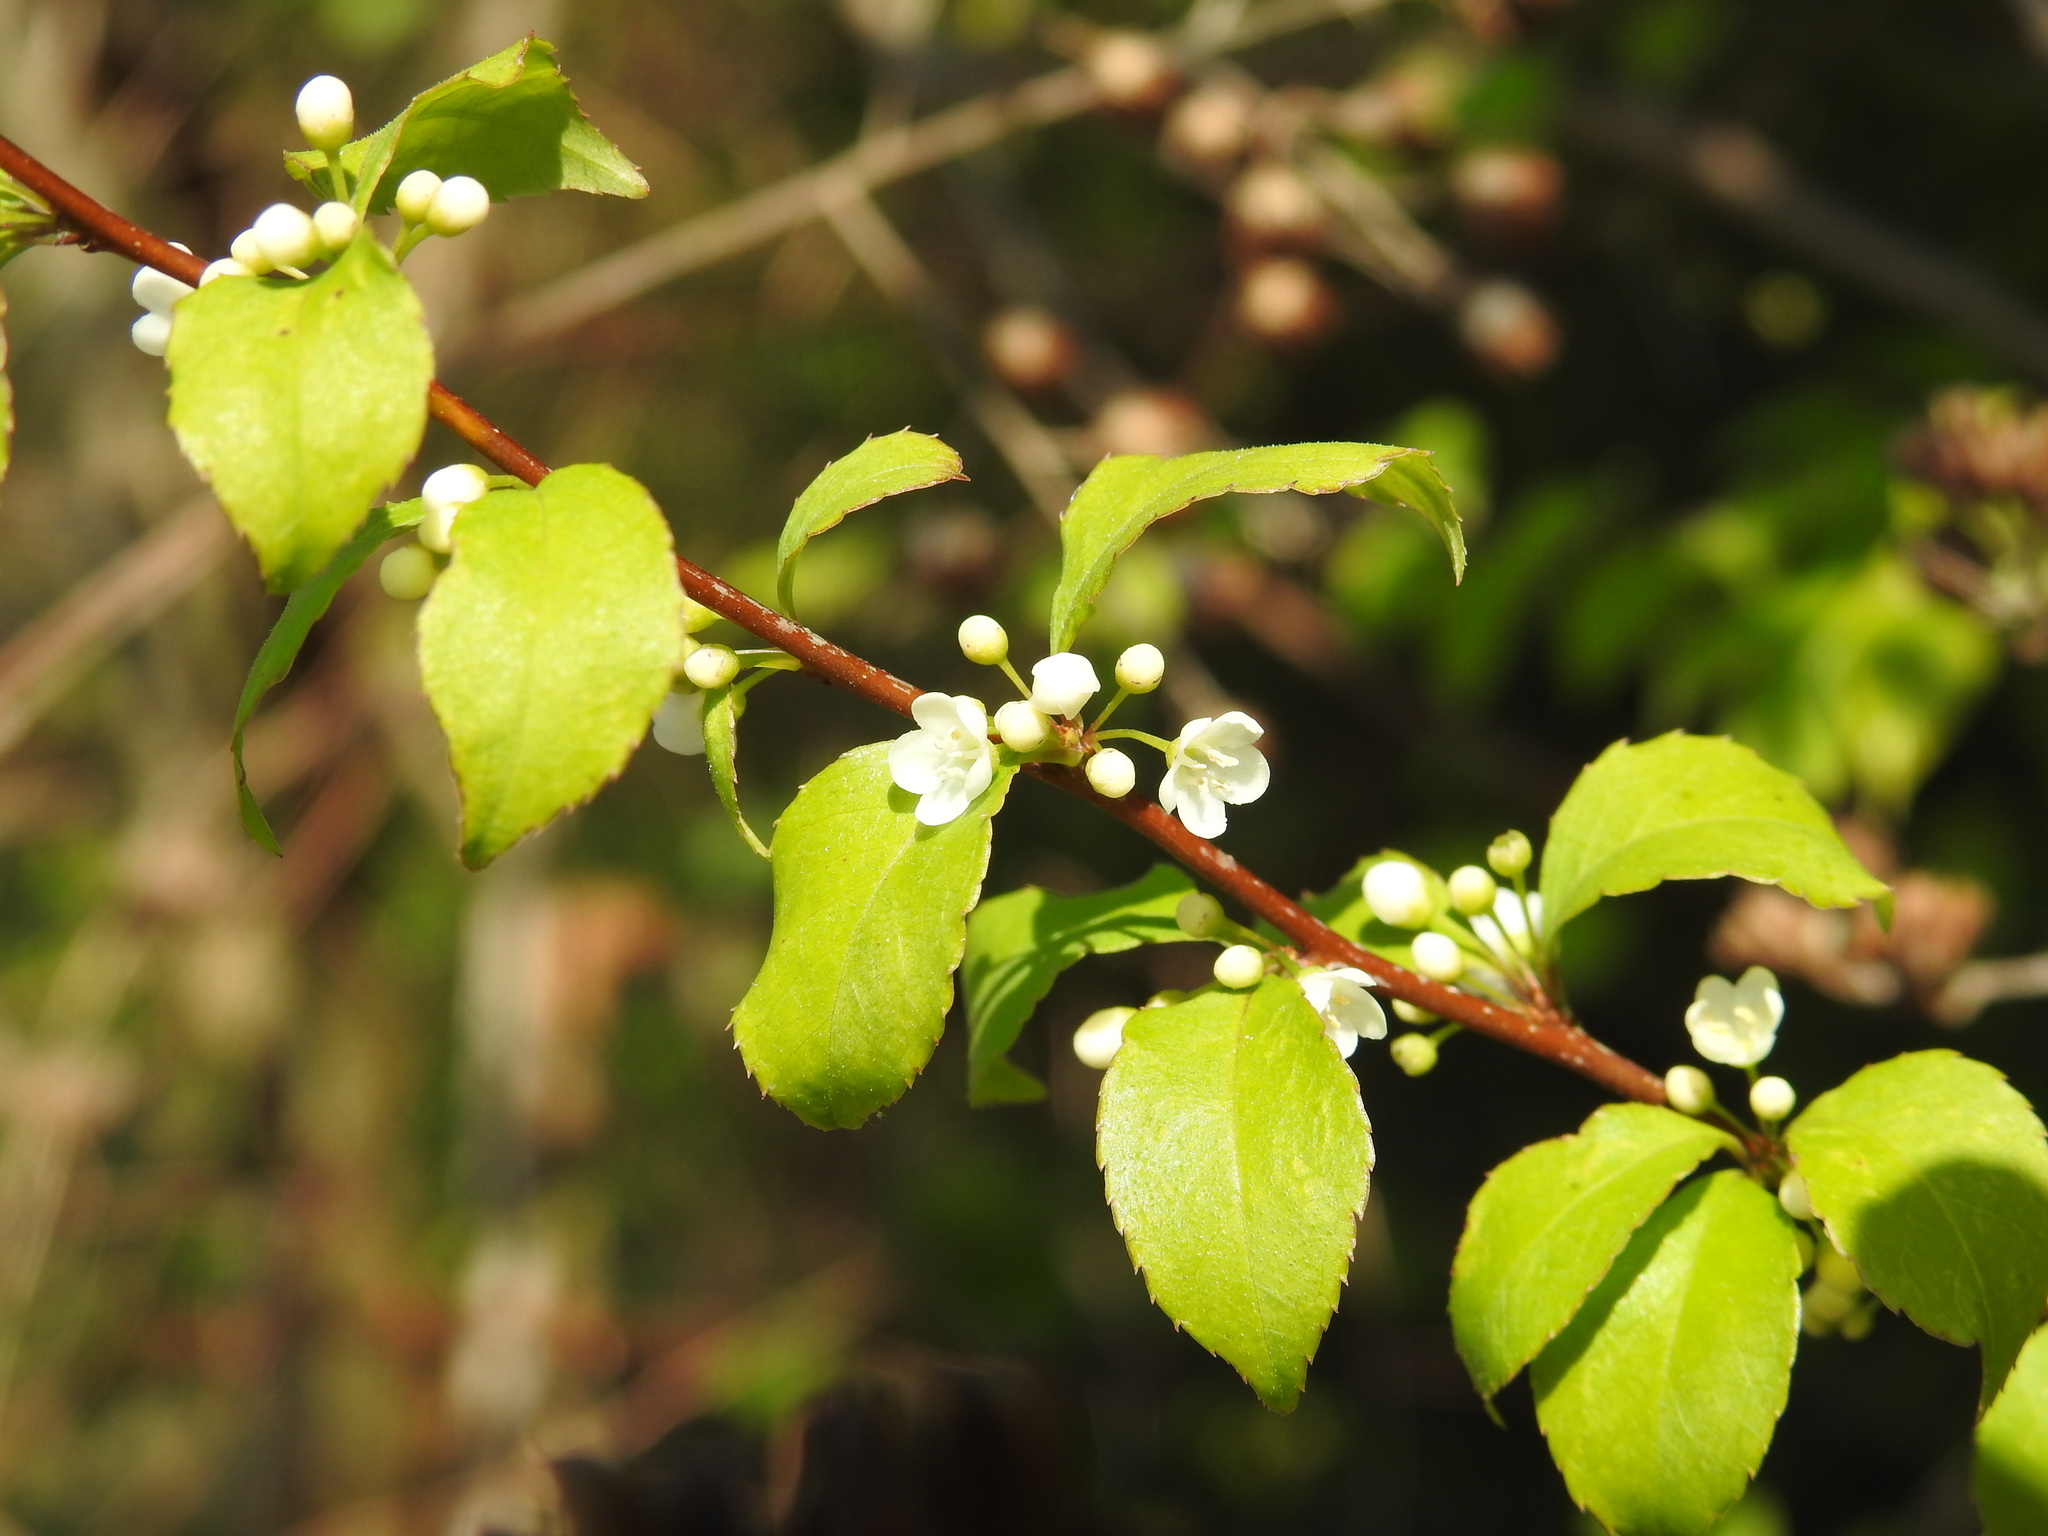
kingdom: Plantae
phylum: Tracheophyta
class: Magnoliopsida
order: Aquifoliales
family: Aquifoliaceae
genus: Ilex
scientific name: Ilex asprella
